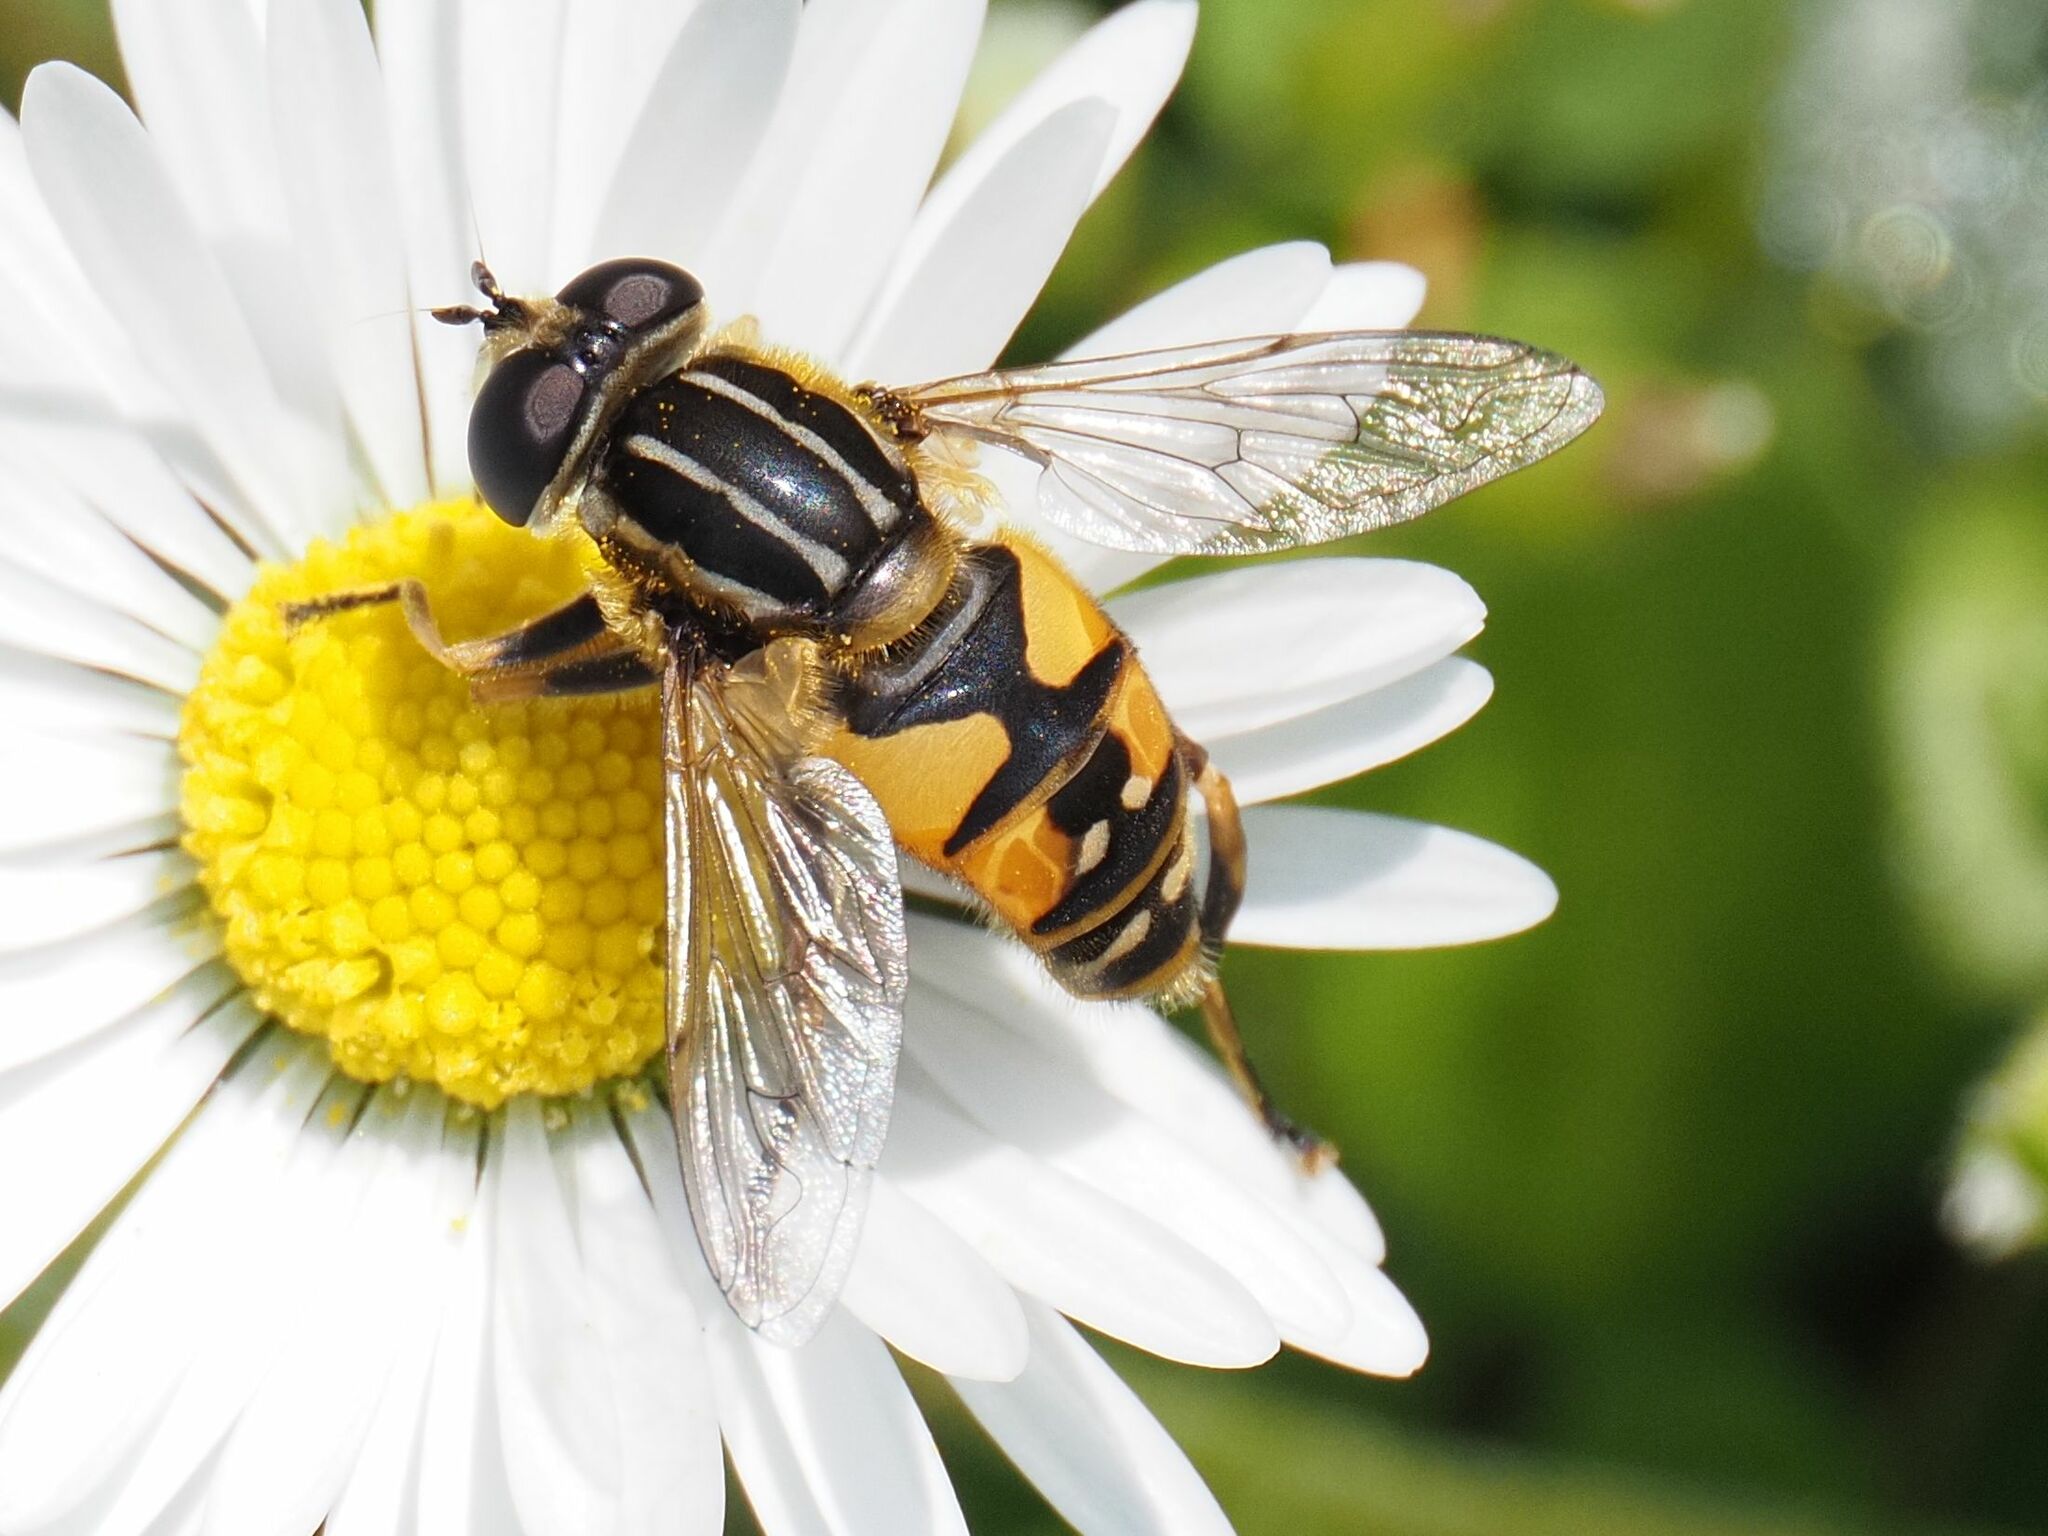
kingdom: Animalia
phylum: Arthropoda
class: Insecta
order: Diptera
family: Syrphidae
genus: Helophilus
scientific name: Helophilus pendulus
